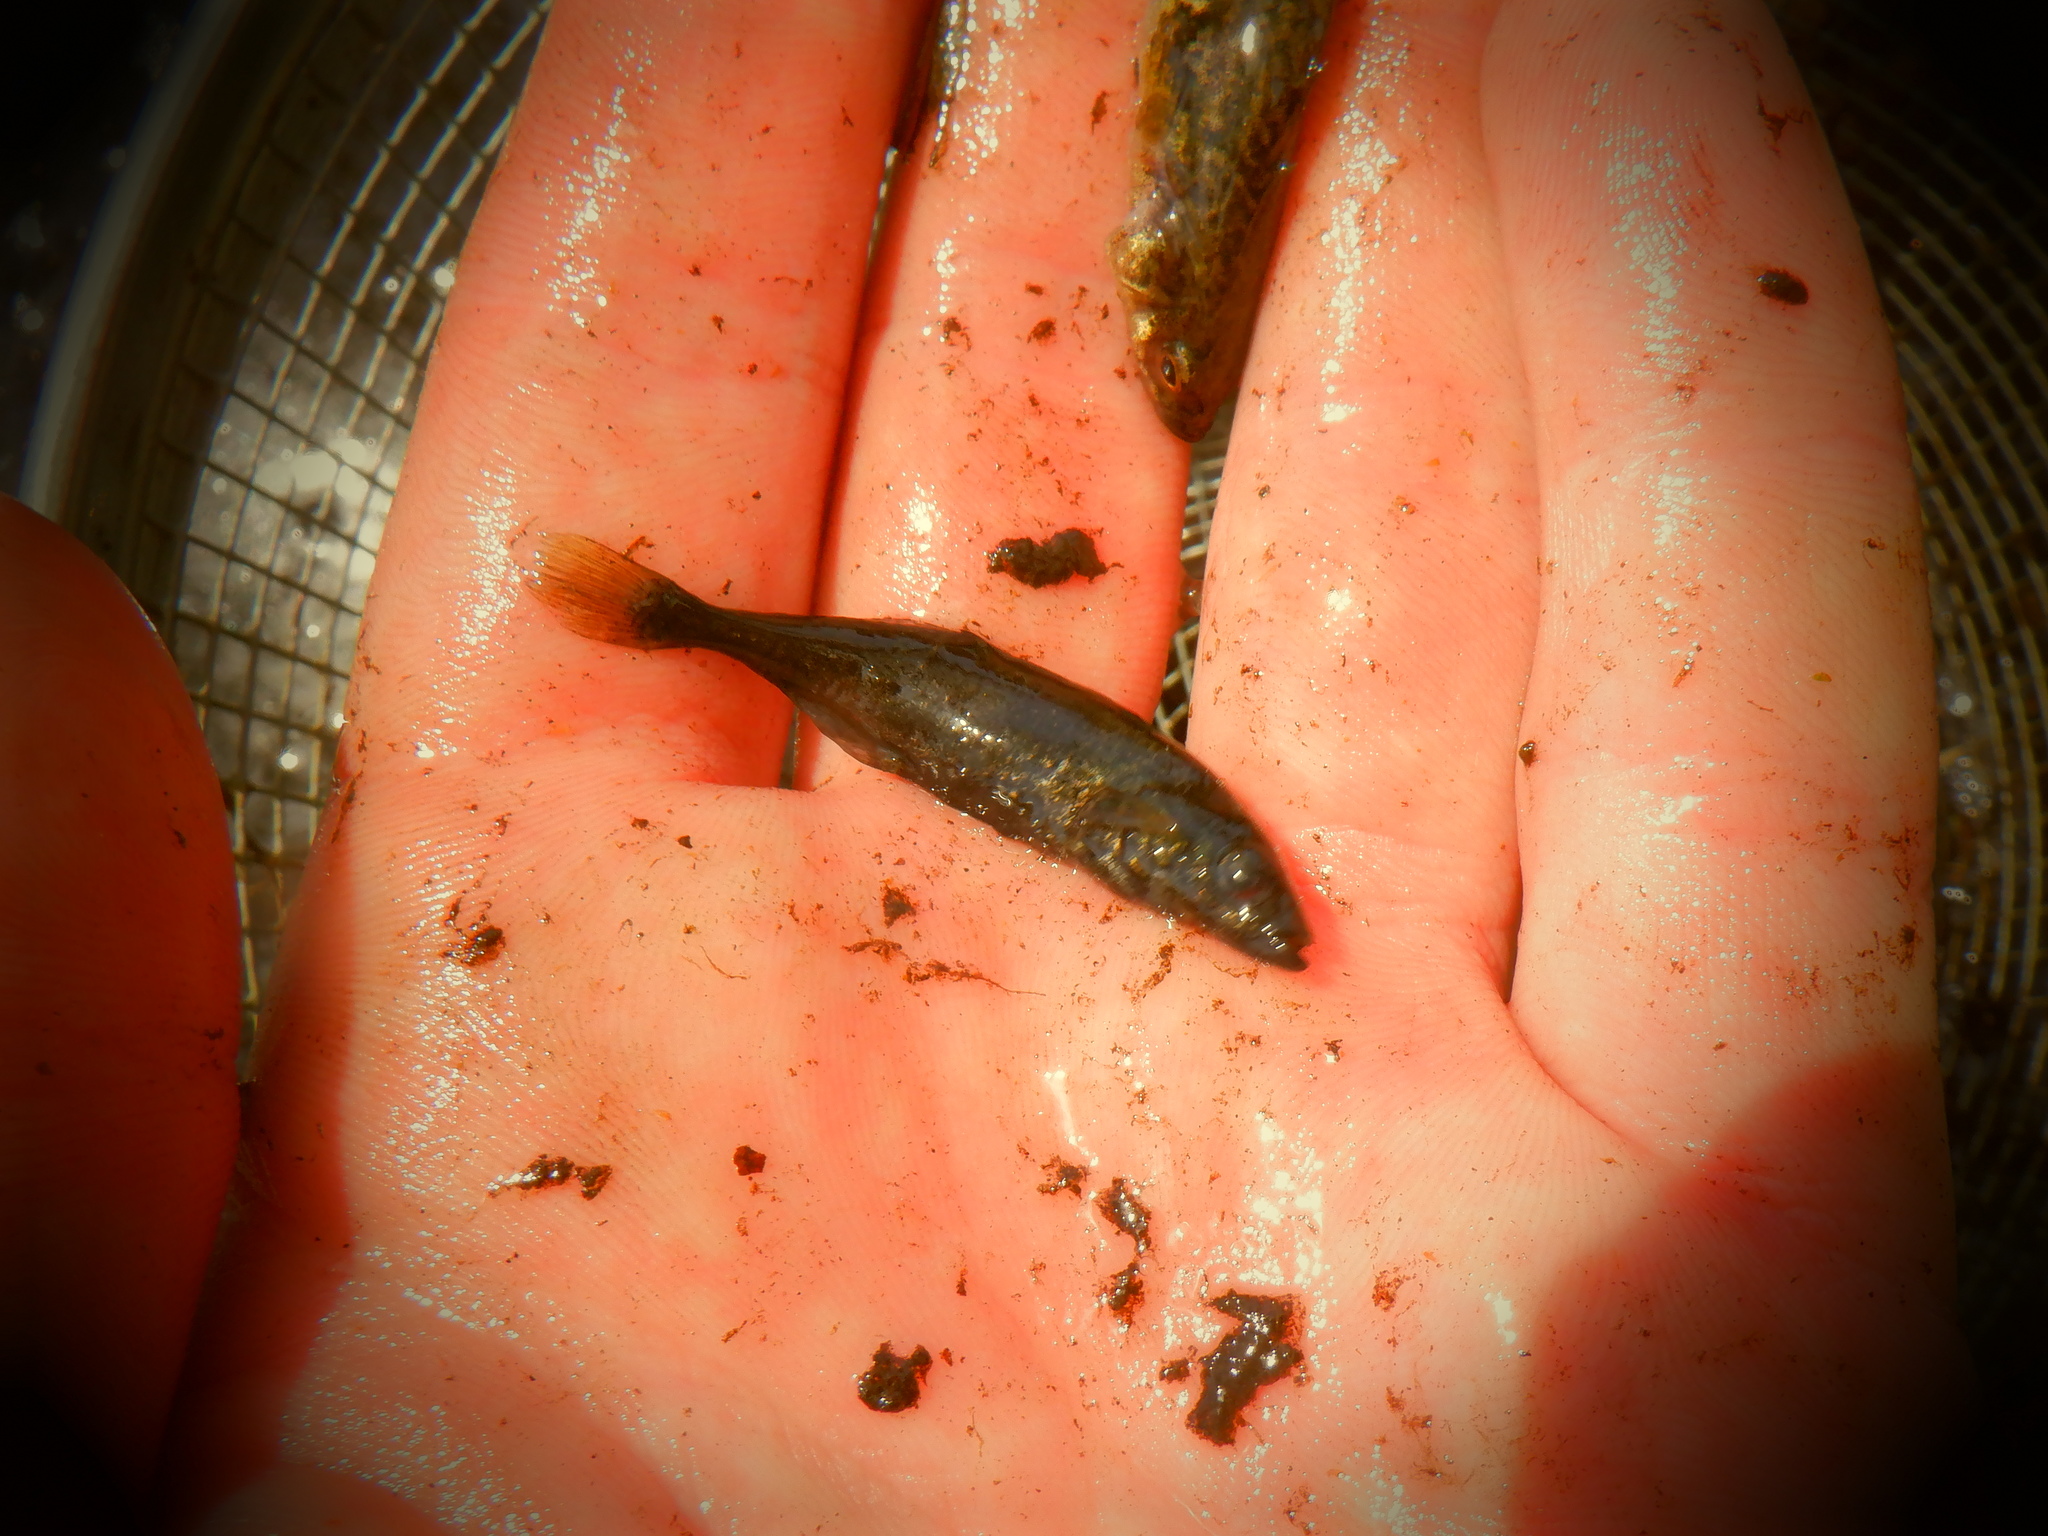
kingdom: Animalia
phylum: Chordata
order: Gasterosteiformes
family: Gasterosteidae
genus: Culaea
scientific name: Culaea inconstans
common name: Brook stickleback
